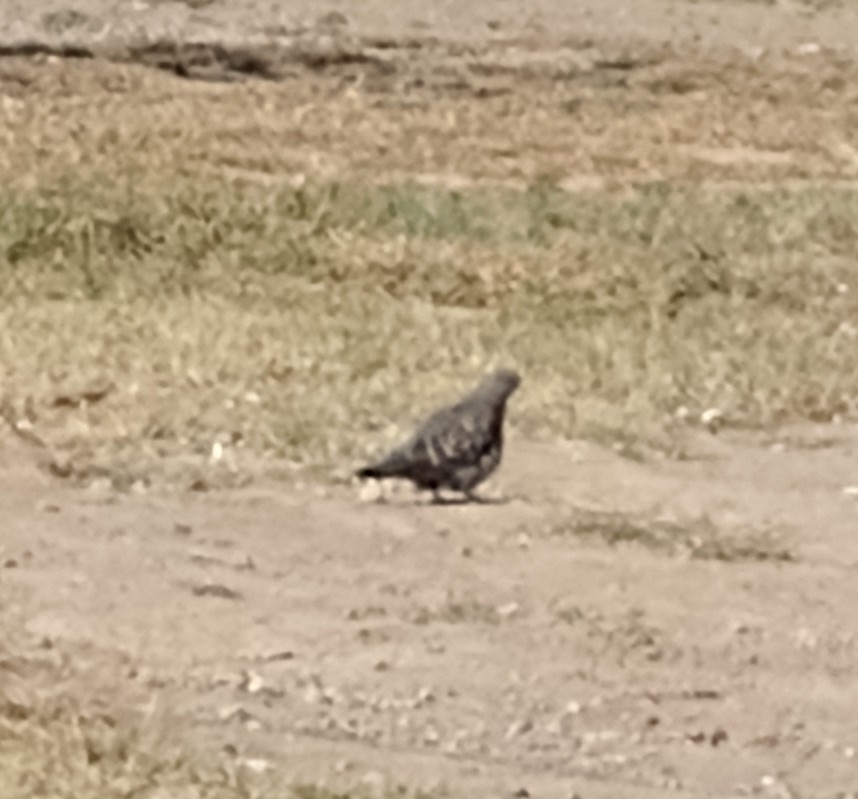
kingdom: Animalia
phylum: Chordata
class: Aves
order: Columbiformes
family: Columbidae
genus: Patagioenas
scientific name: Patagioenas maculosa
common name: Spot-winged pigeon
